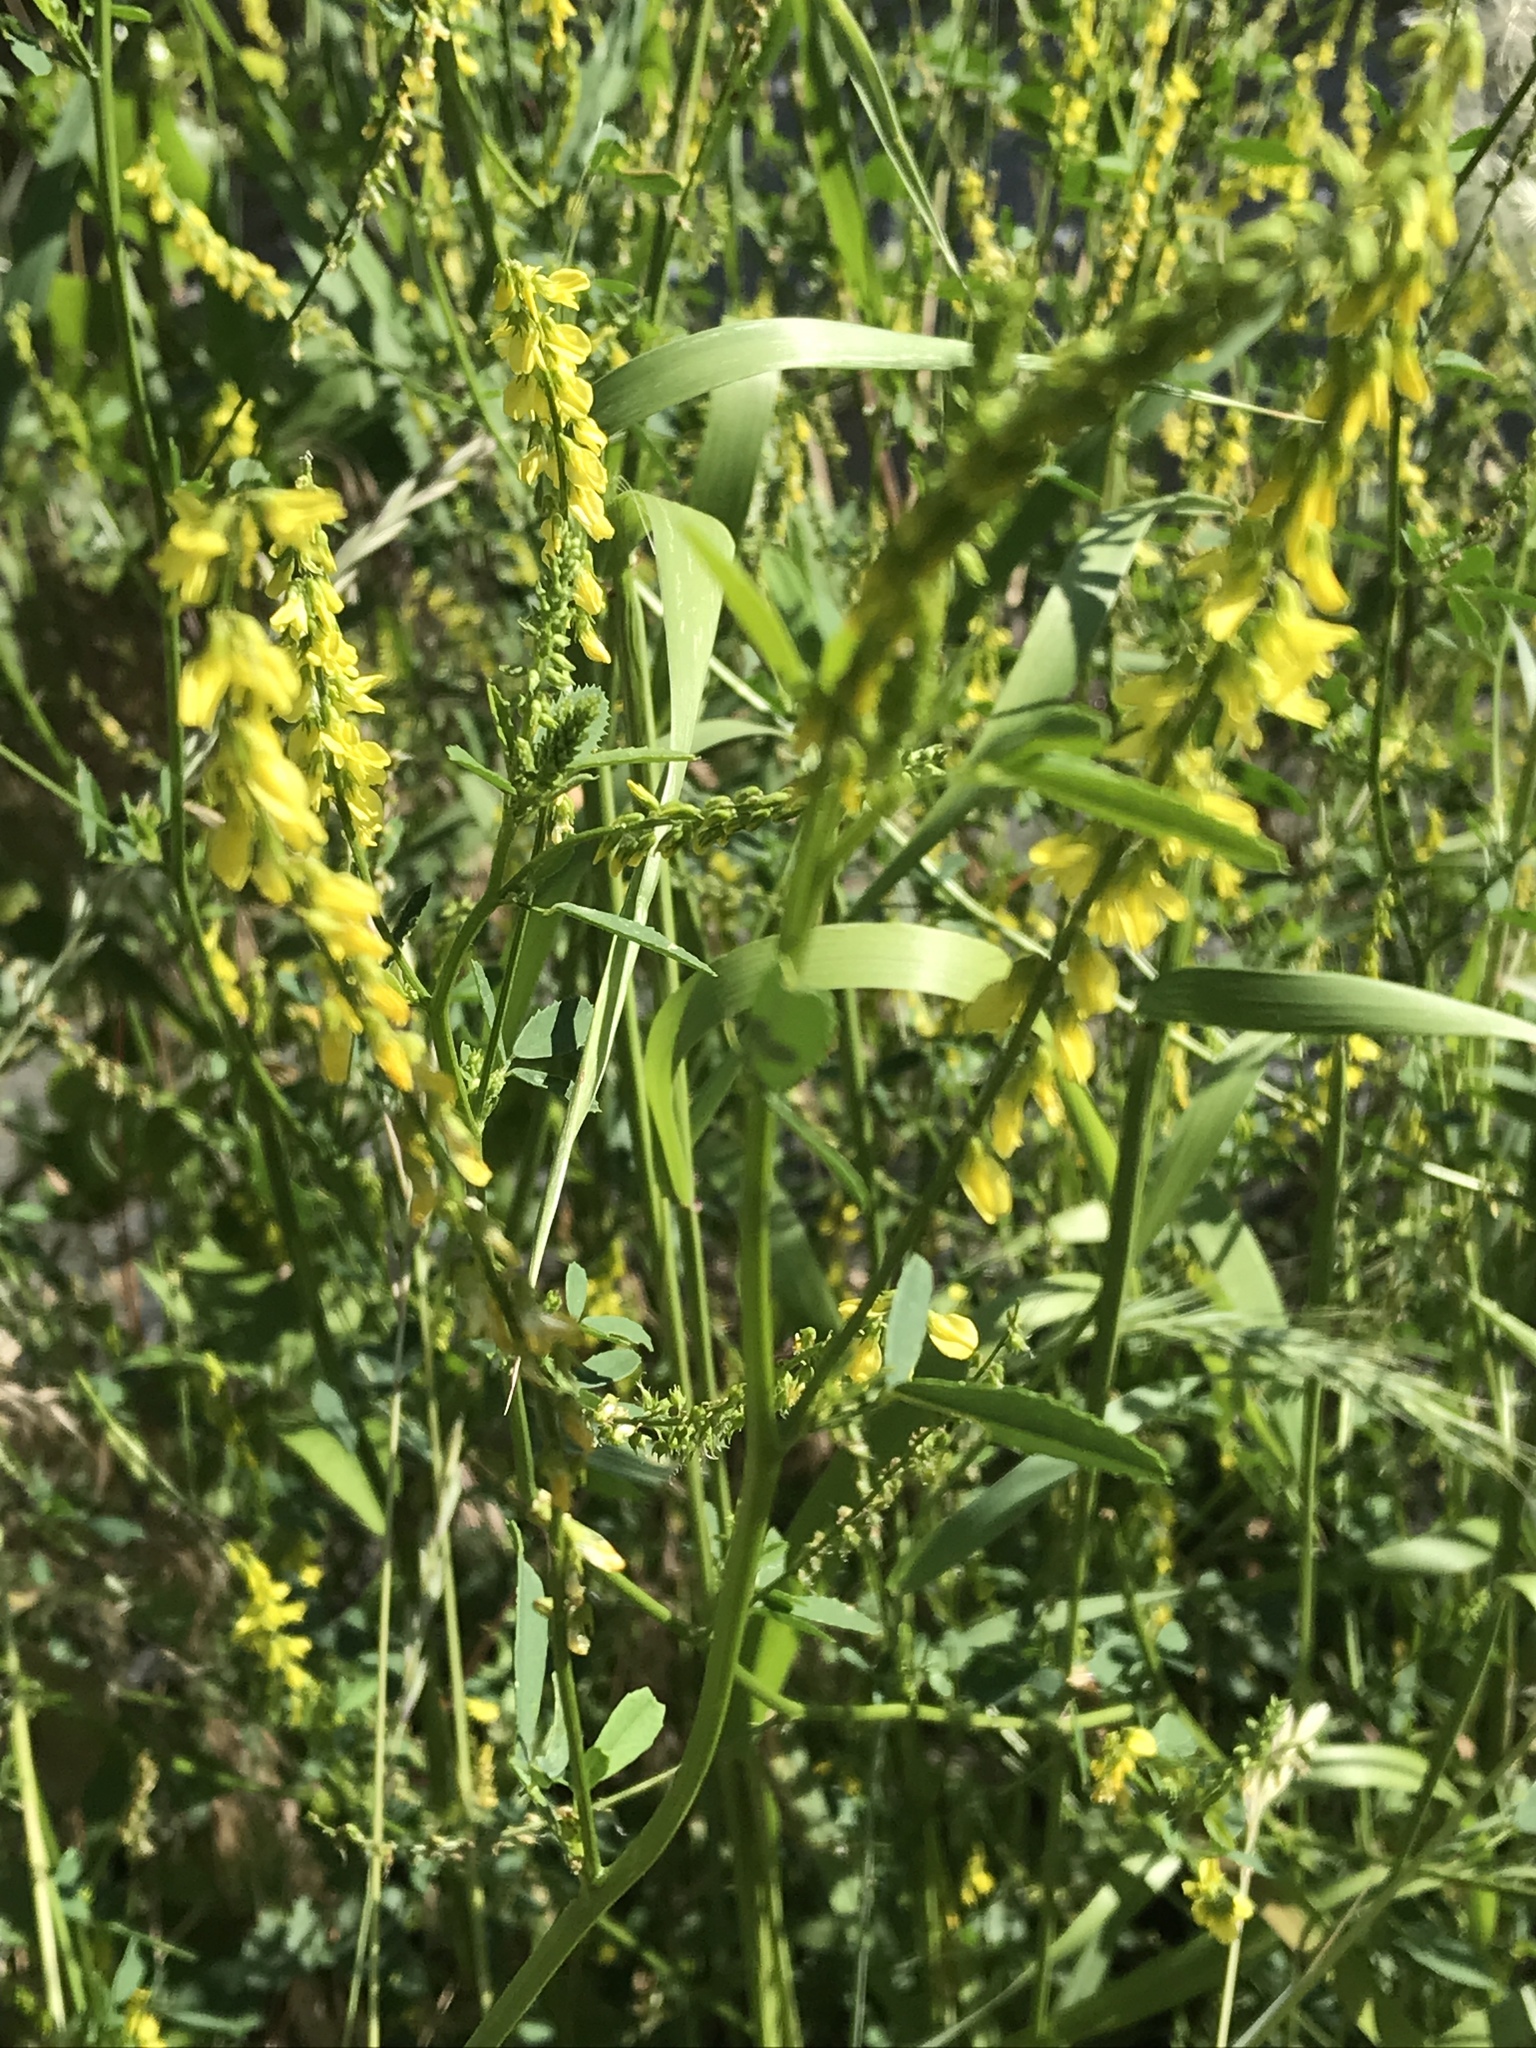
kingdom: Plantae
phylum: Tracheophyta
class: Magnoliopsida
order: Fabales
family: Fabaceae
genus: Melilotus
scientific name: Melilotus officinalis
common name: Sweetclover
